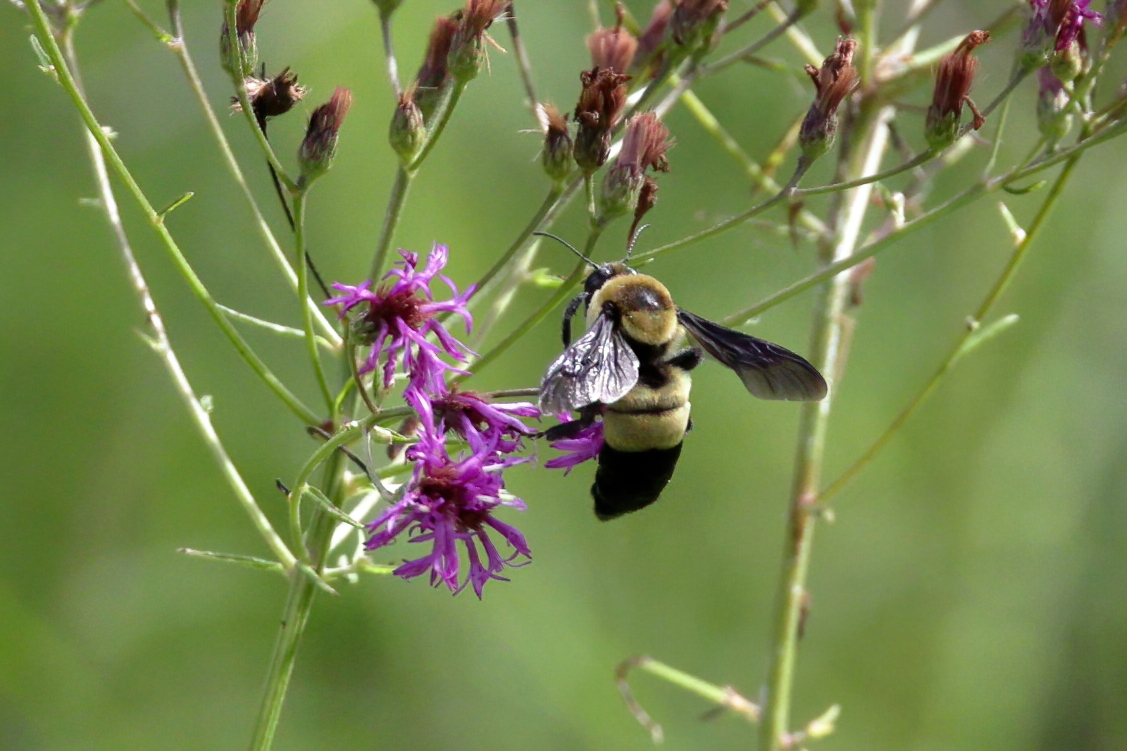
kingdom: Animalia
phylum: Arthropoda
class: Insecta
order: Hymenoptera
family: Apidae
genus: Bombus
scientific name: Bombus fraternus
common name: Southern plains bumble bee
